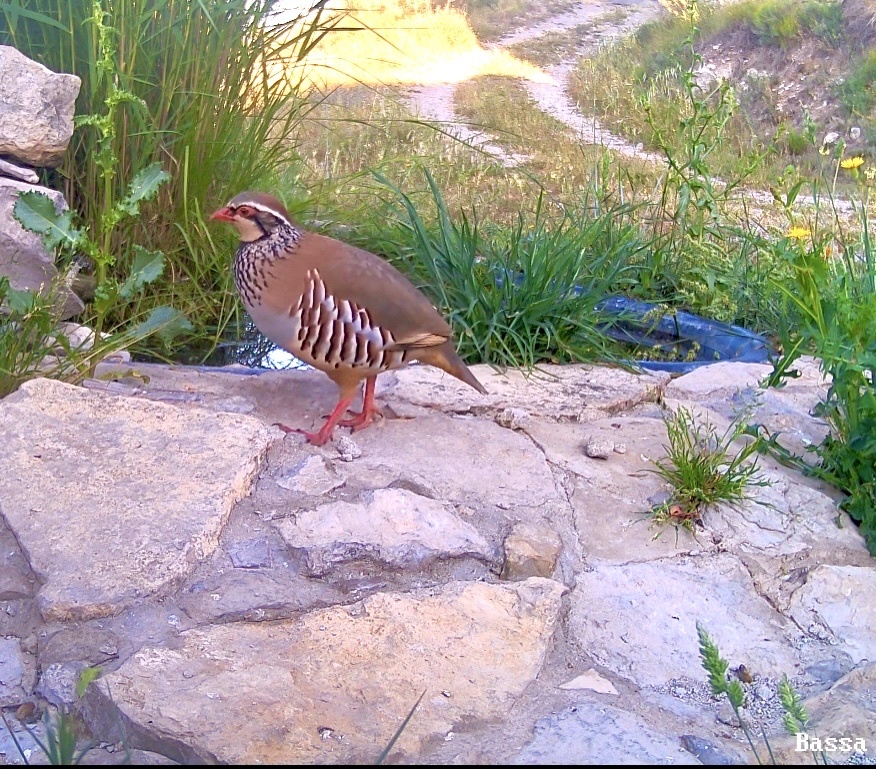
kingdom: Animalia
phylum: Chordata
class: Aves
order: Galliformes
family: Phasianidae
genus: Alectoris
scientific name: Alectoris rufa
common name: Red-legged partridge
